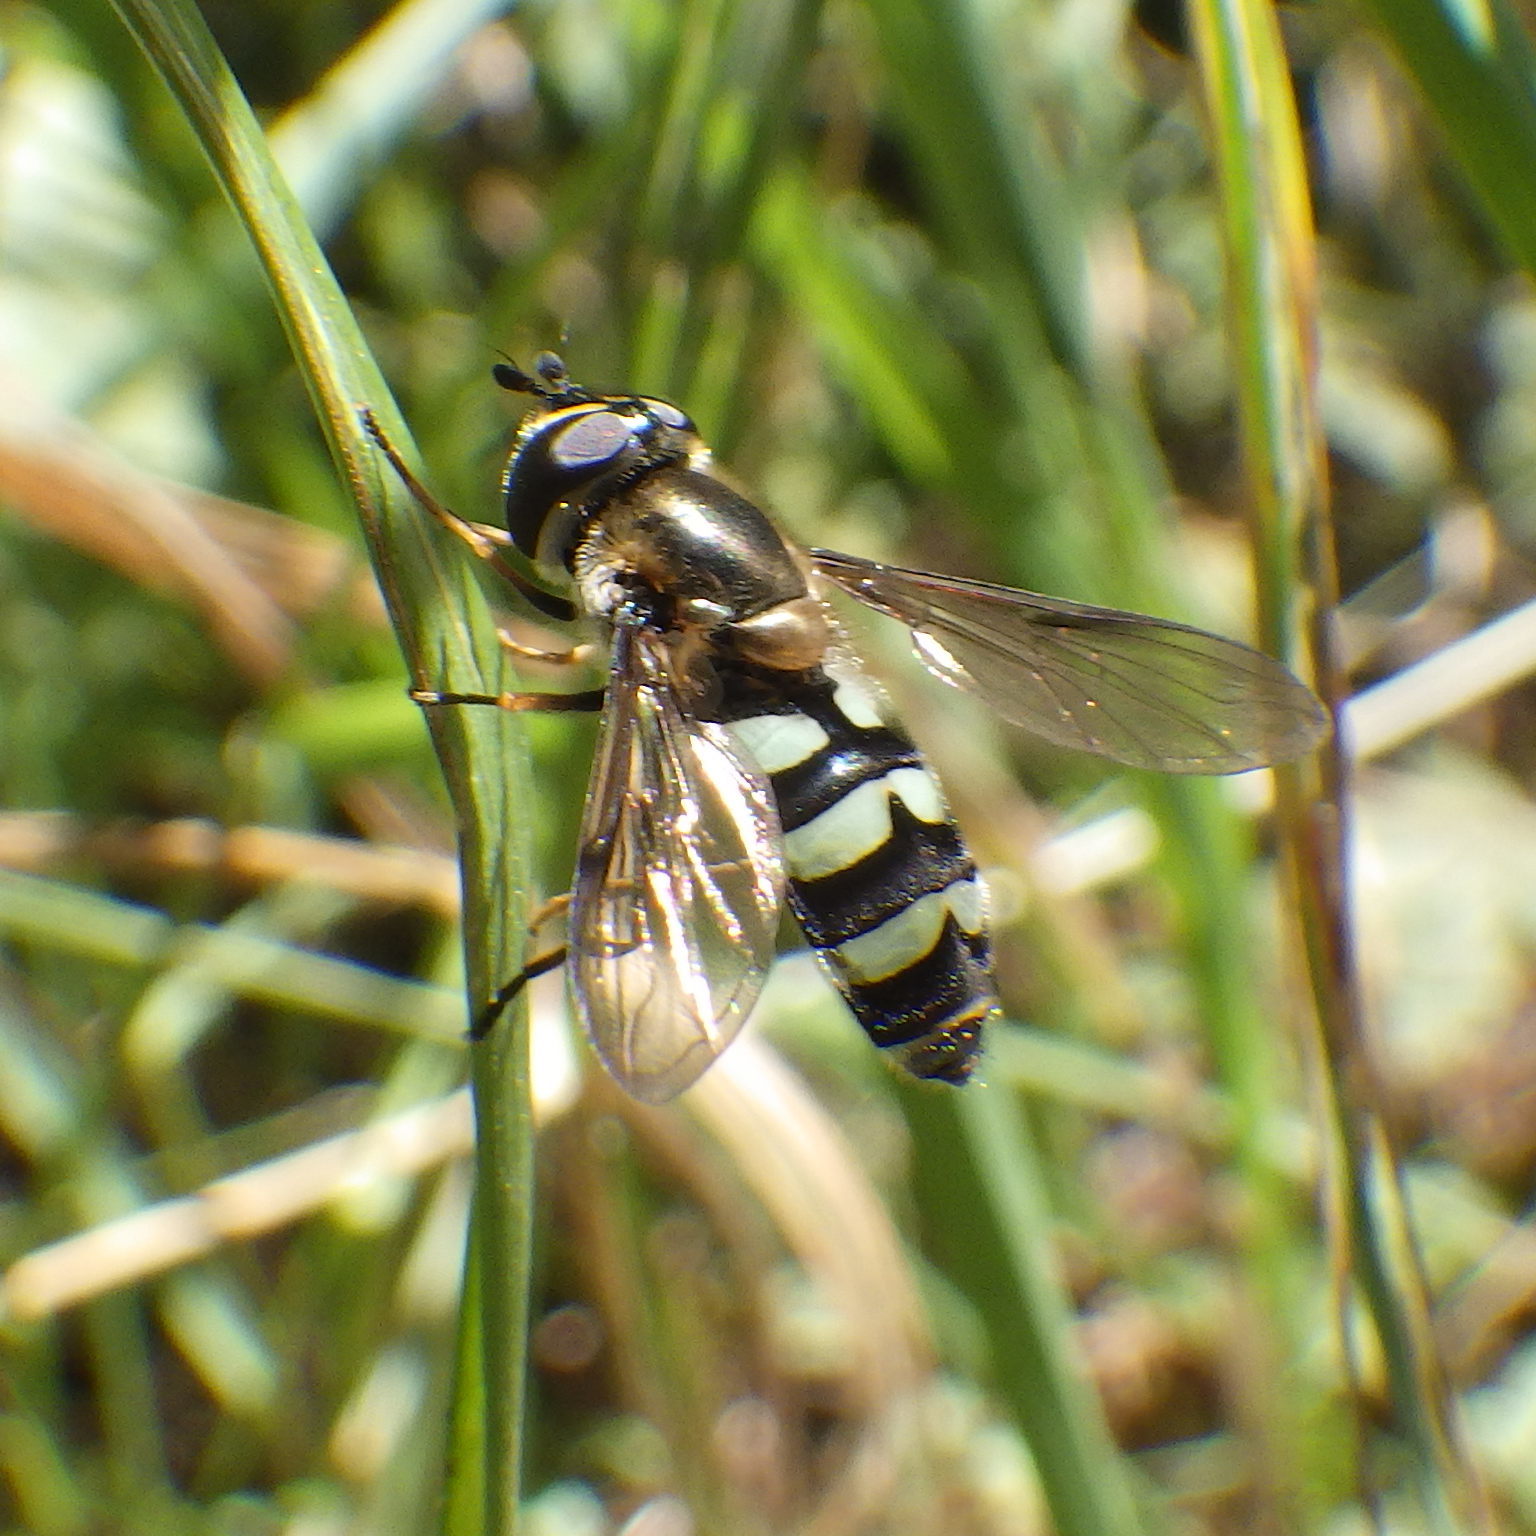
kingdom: Animalia
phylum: Arthropoda
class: Insecta
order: Diptera
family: Syrphidae
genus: Megasyrphus
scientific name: Megasyrphus laxus
